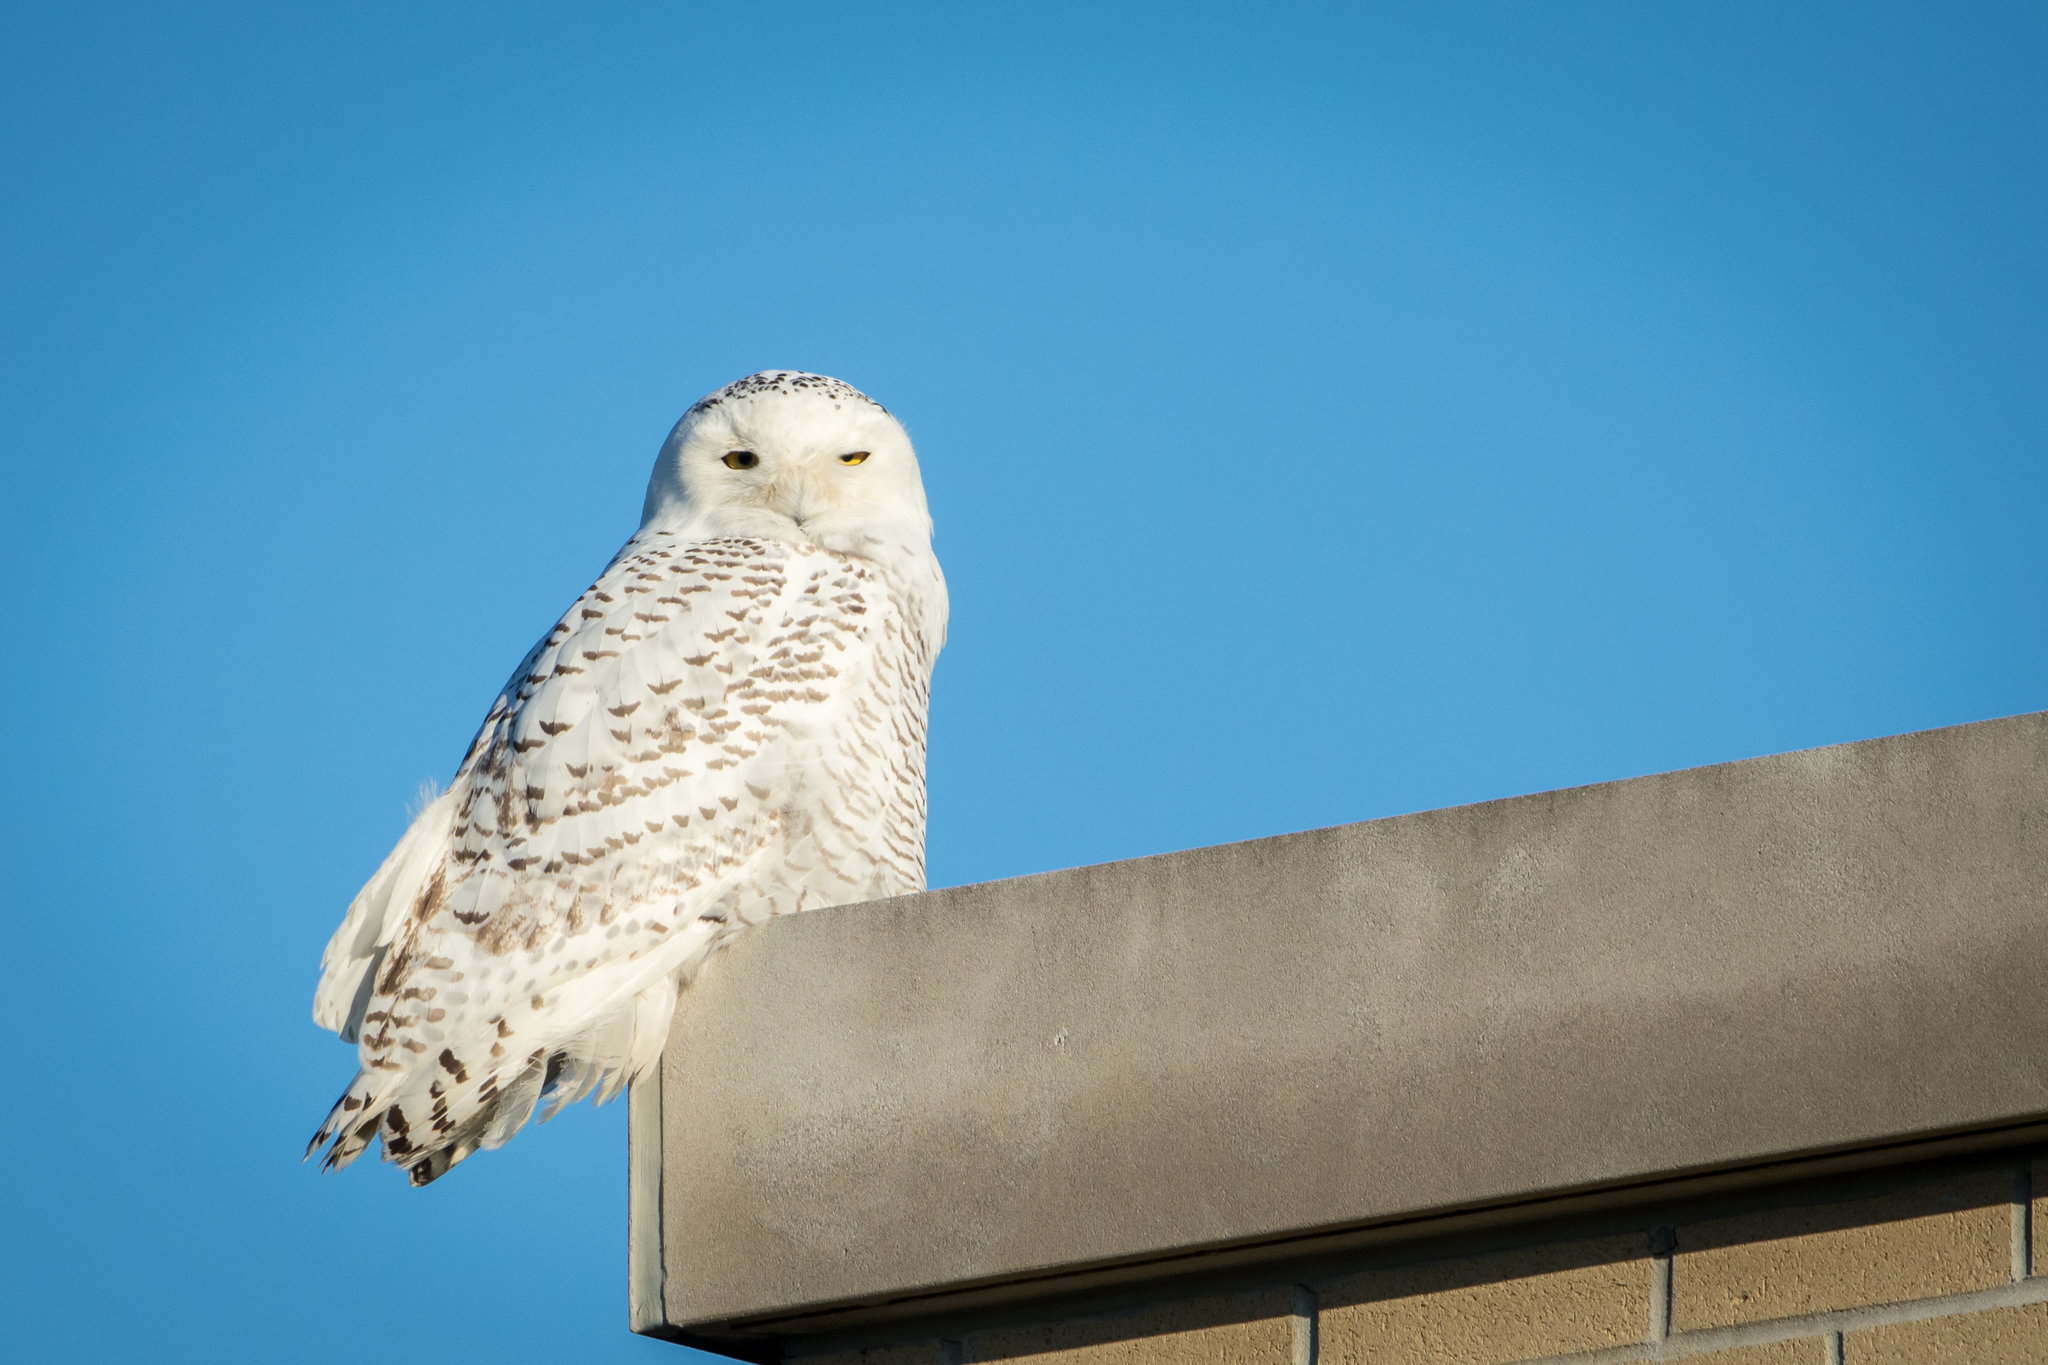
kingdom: Animalia
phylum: Chordata
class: Aves
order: Strigiformes
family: Strigidae
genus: Bubo
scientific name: Bubo scandiacus
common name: Snowy owl
